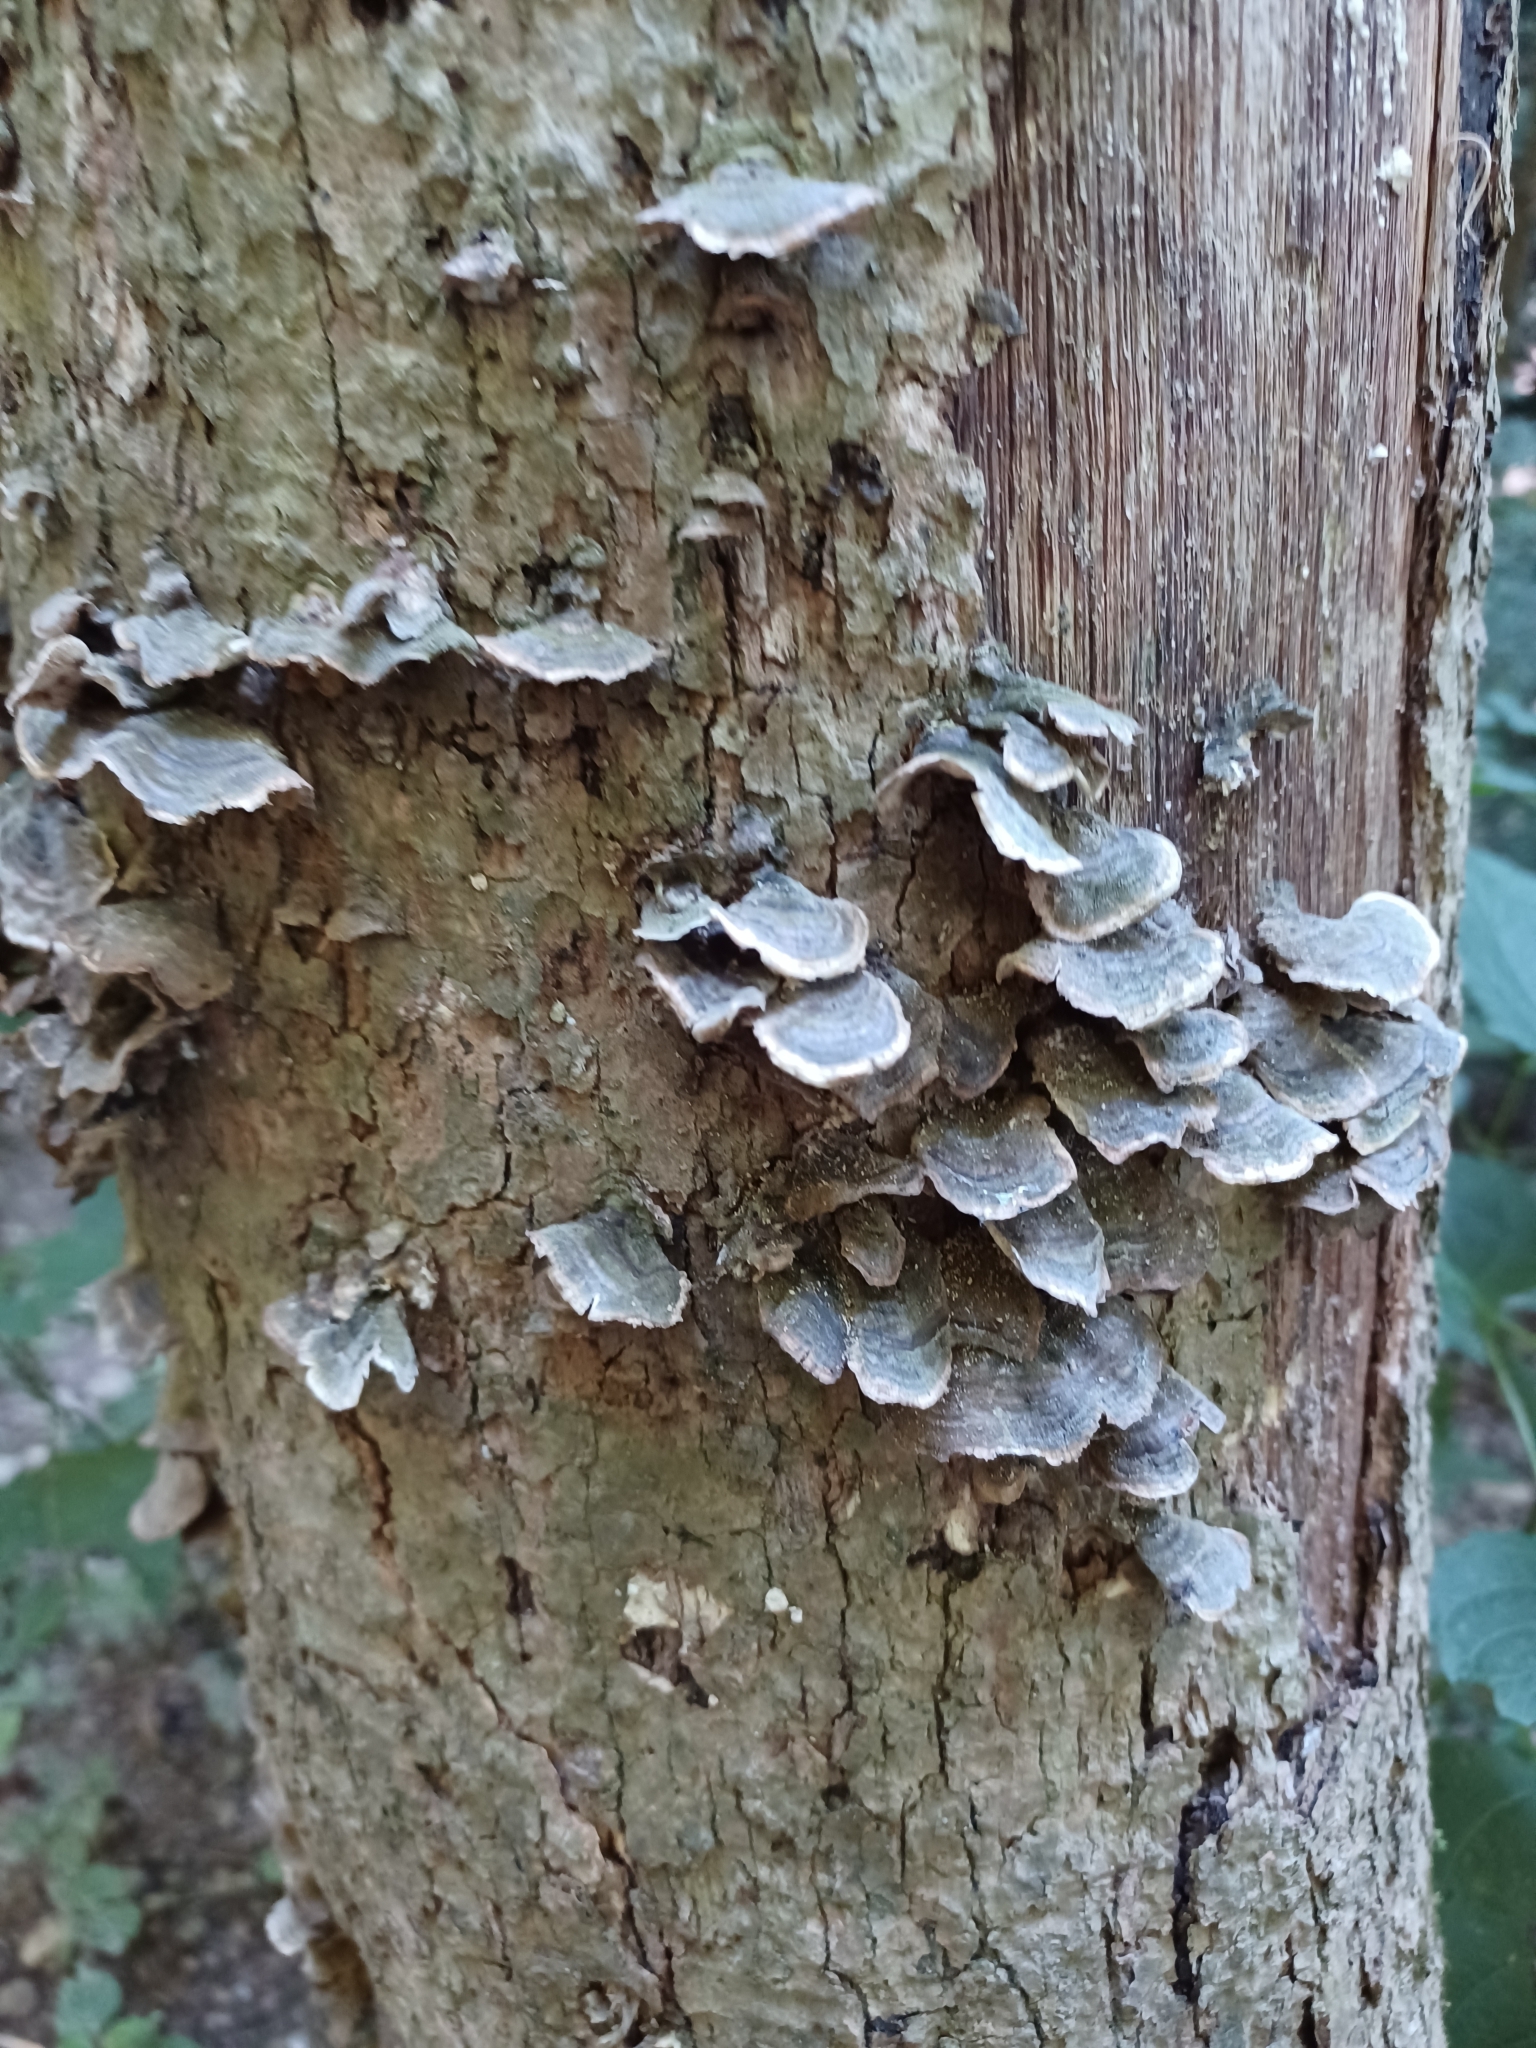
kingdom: Fungi
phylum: Basidiomycota
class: Agaricomycetes
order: Polyporales
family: Polyporaceae
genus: Trametes
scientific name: Trametes versicolor
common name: Turkeytail
